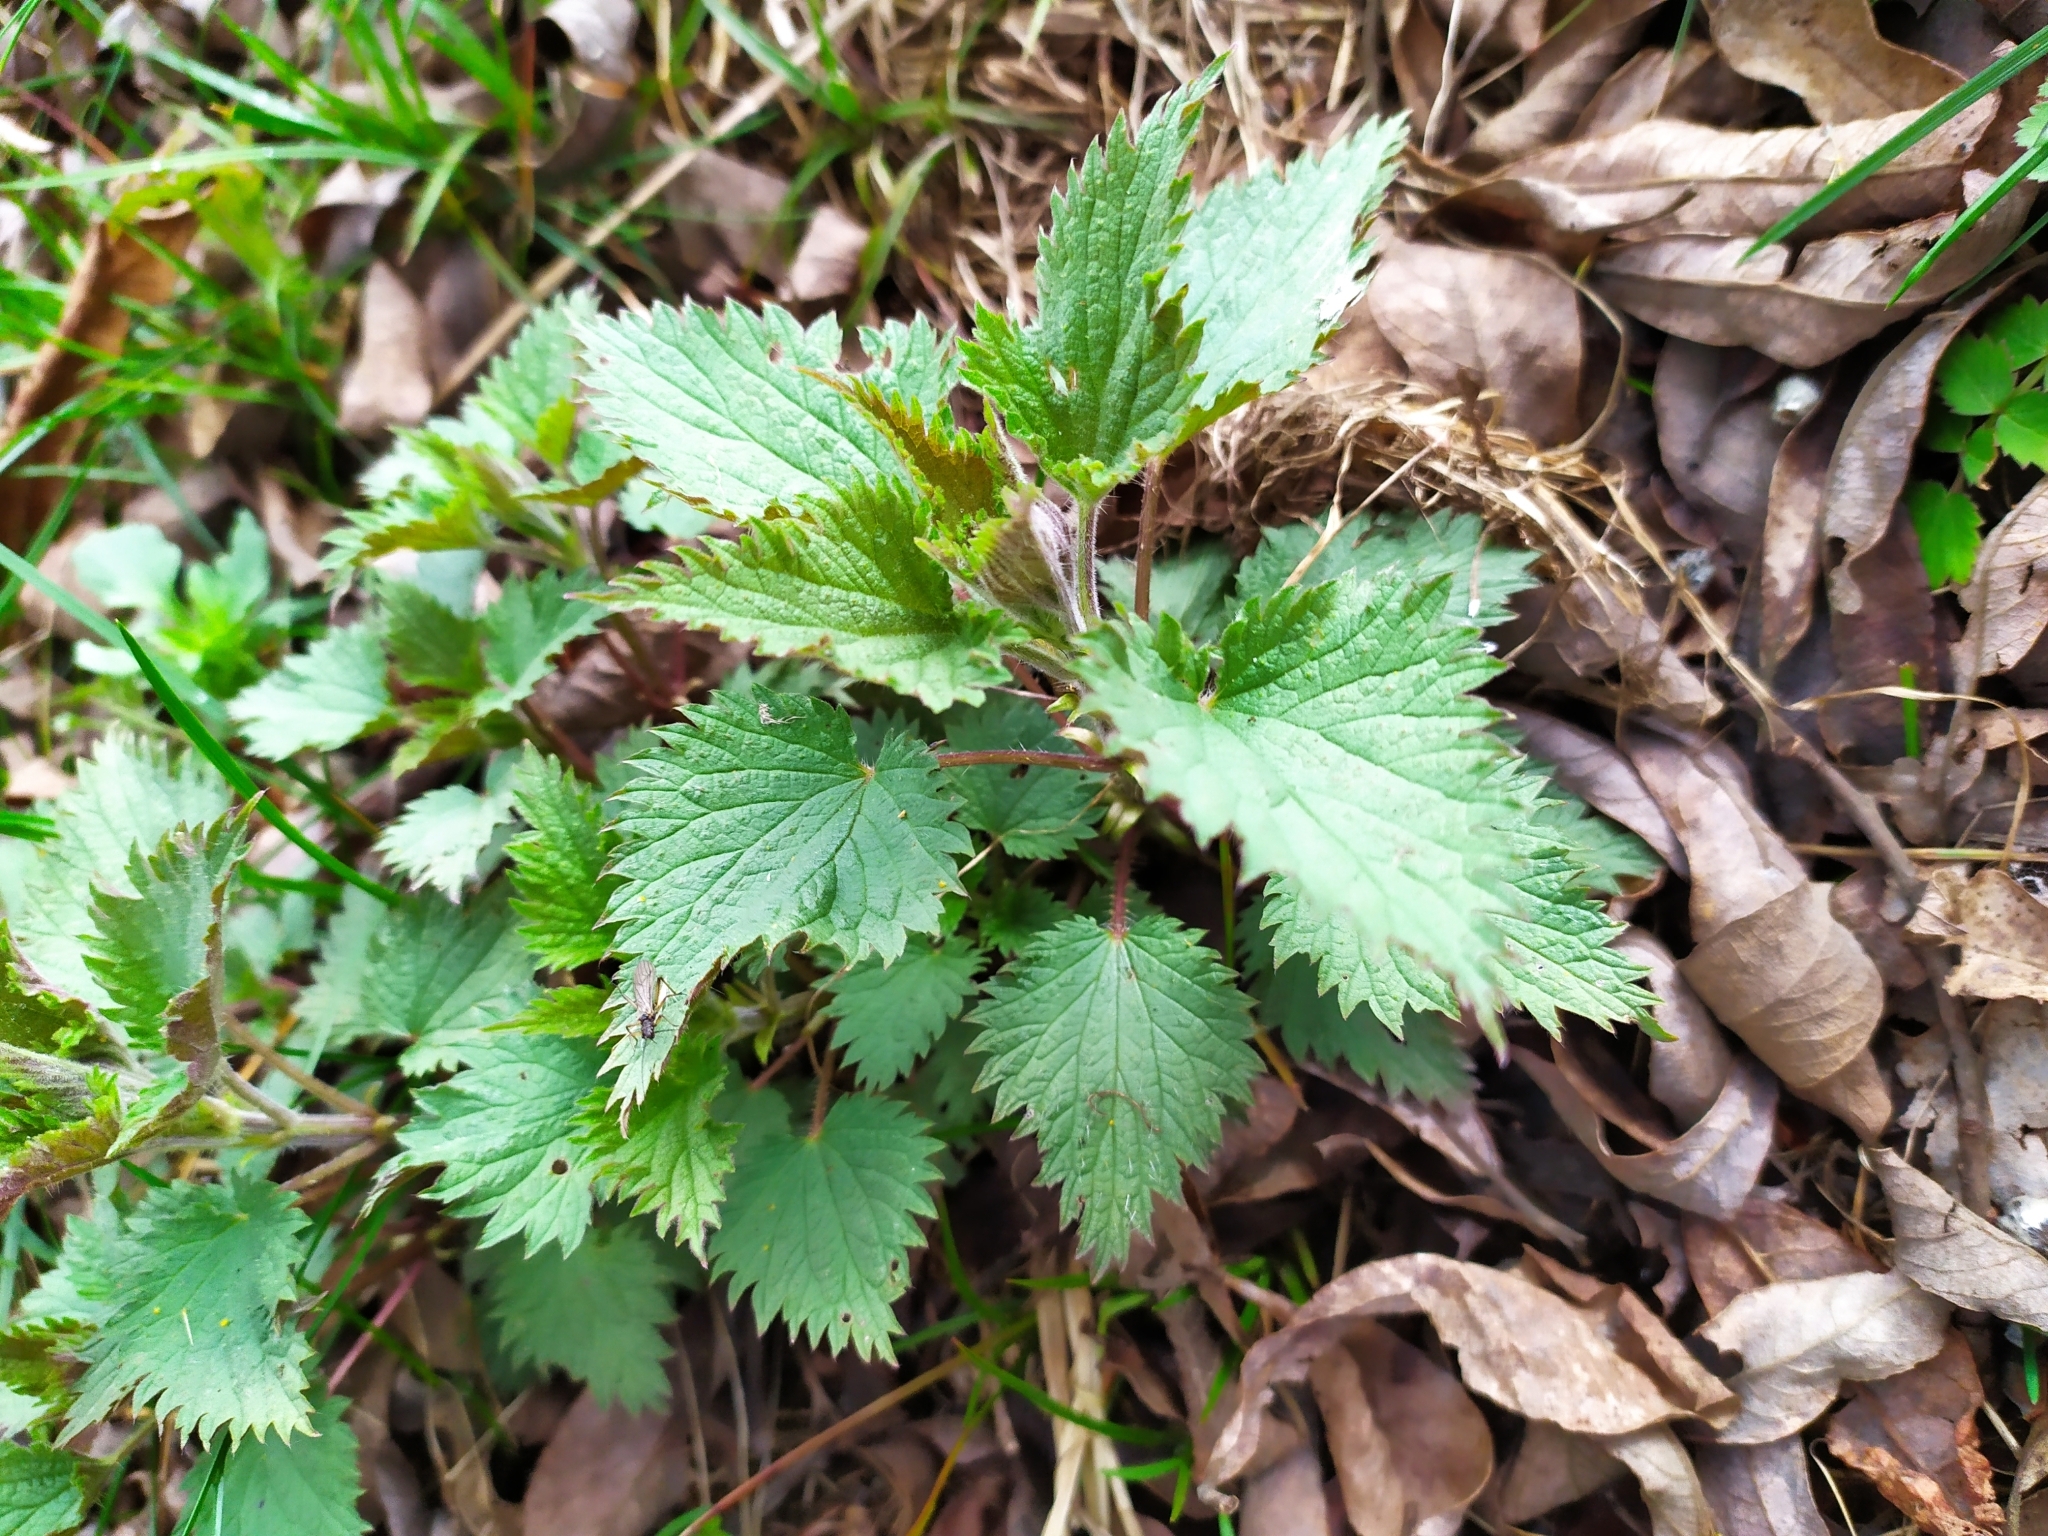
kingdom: Plantae
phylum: Tracheophyta
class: Magnoliopsida
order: Rosales
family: Urticaceae
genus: Urtica
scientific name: Urtica dioica
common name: Common nettle
